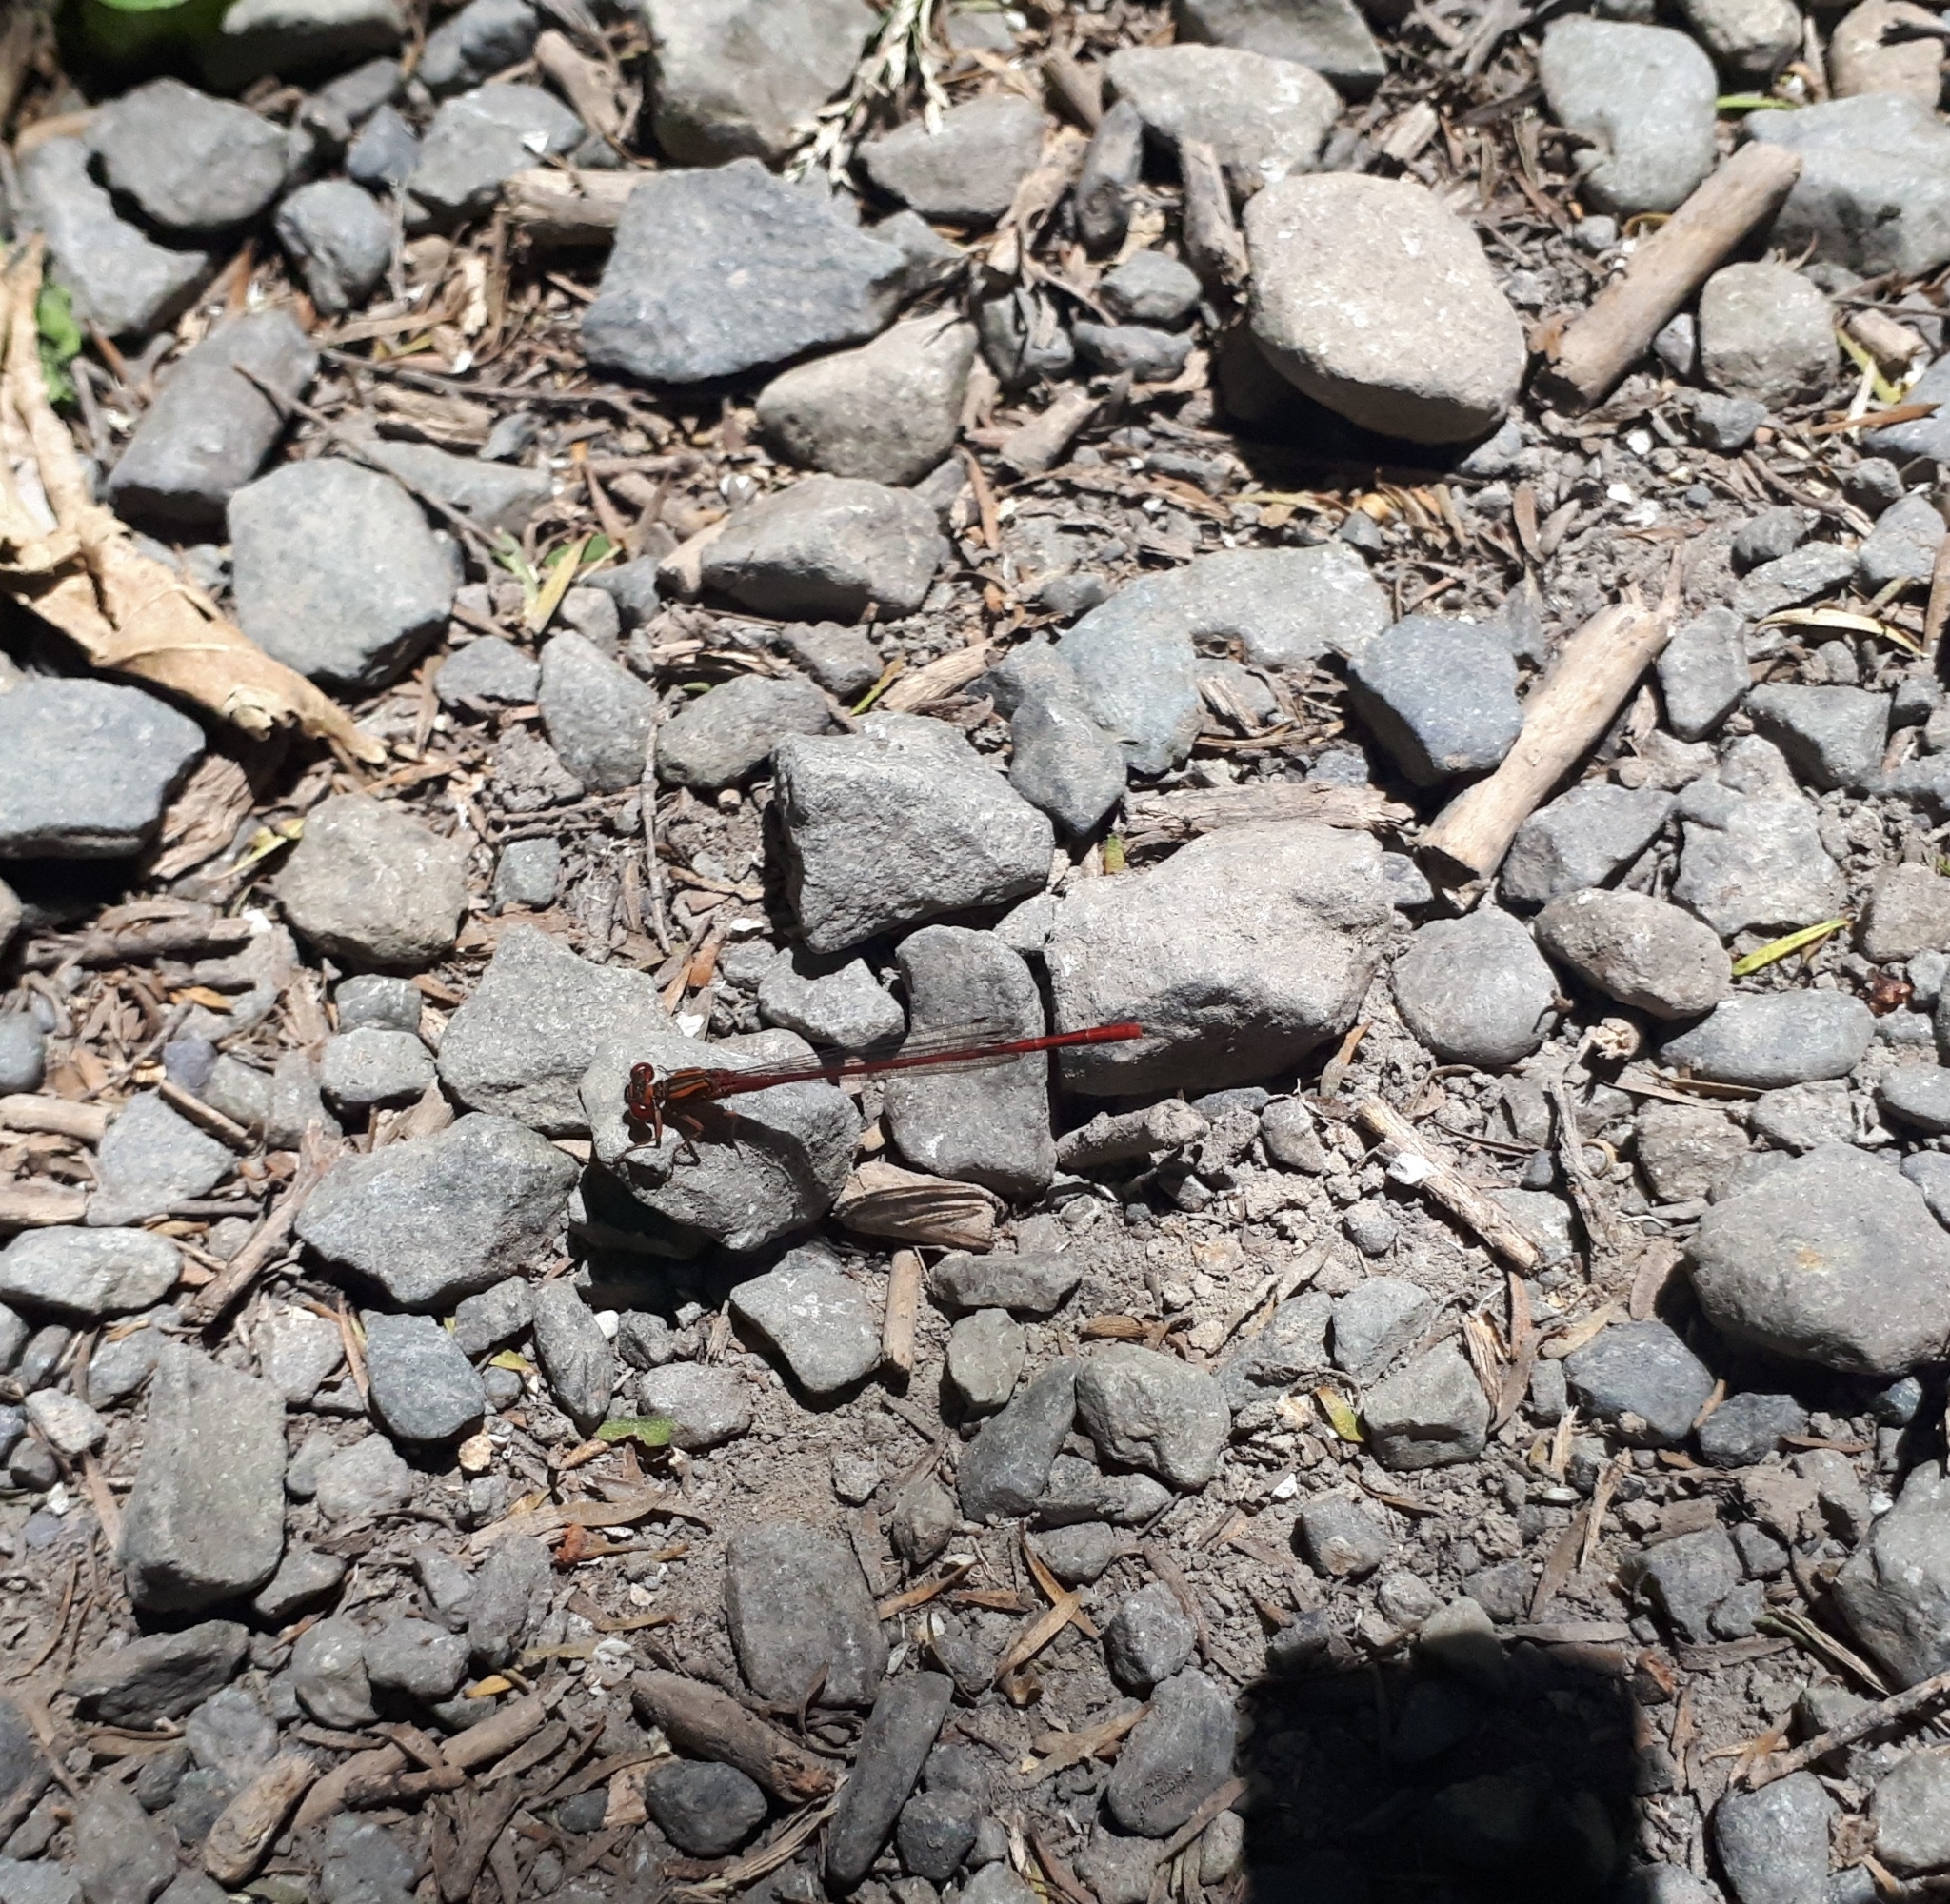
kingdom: Animalia
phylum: Arthropoda
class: Insecta
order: Odonata
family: Coenagrionidae
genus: Xanthocnemis
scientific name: Xanthocnemis zealandica
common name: Common redcoat damselfly
